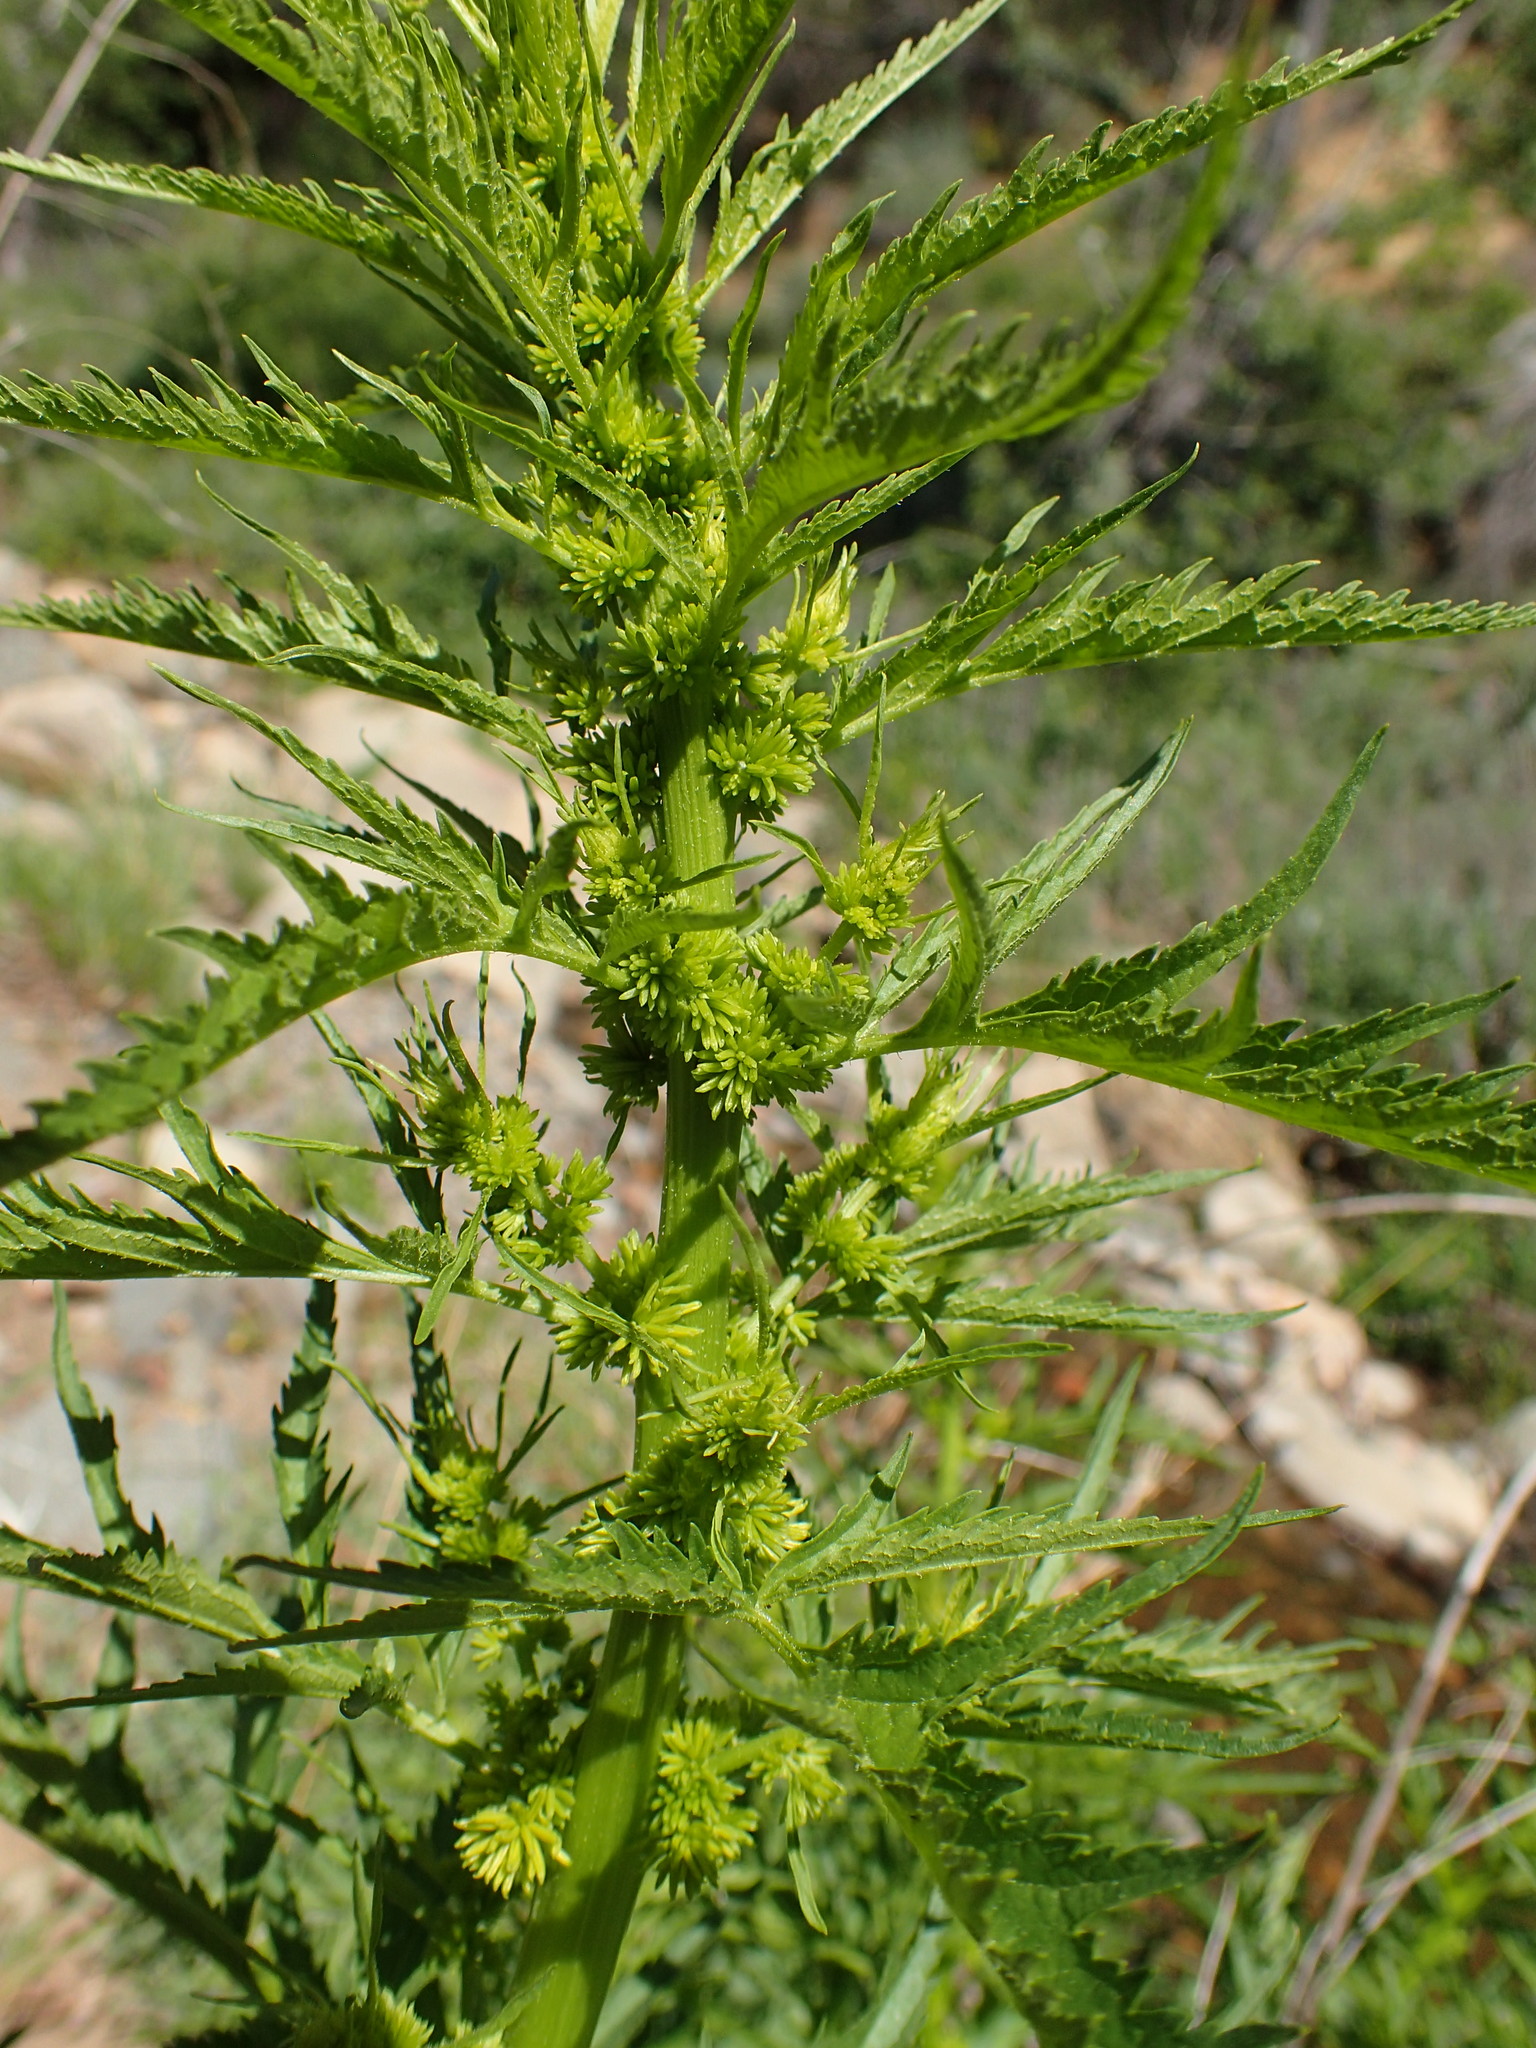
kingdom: Plantae
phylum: Tracheophyta
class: Magnoliopsida
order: Cucurbitales
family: Datiscaceae
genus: Datisca
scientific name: Datisca glomerata
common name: Durango-root
